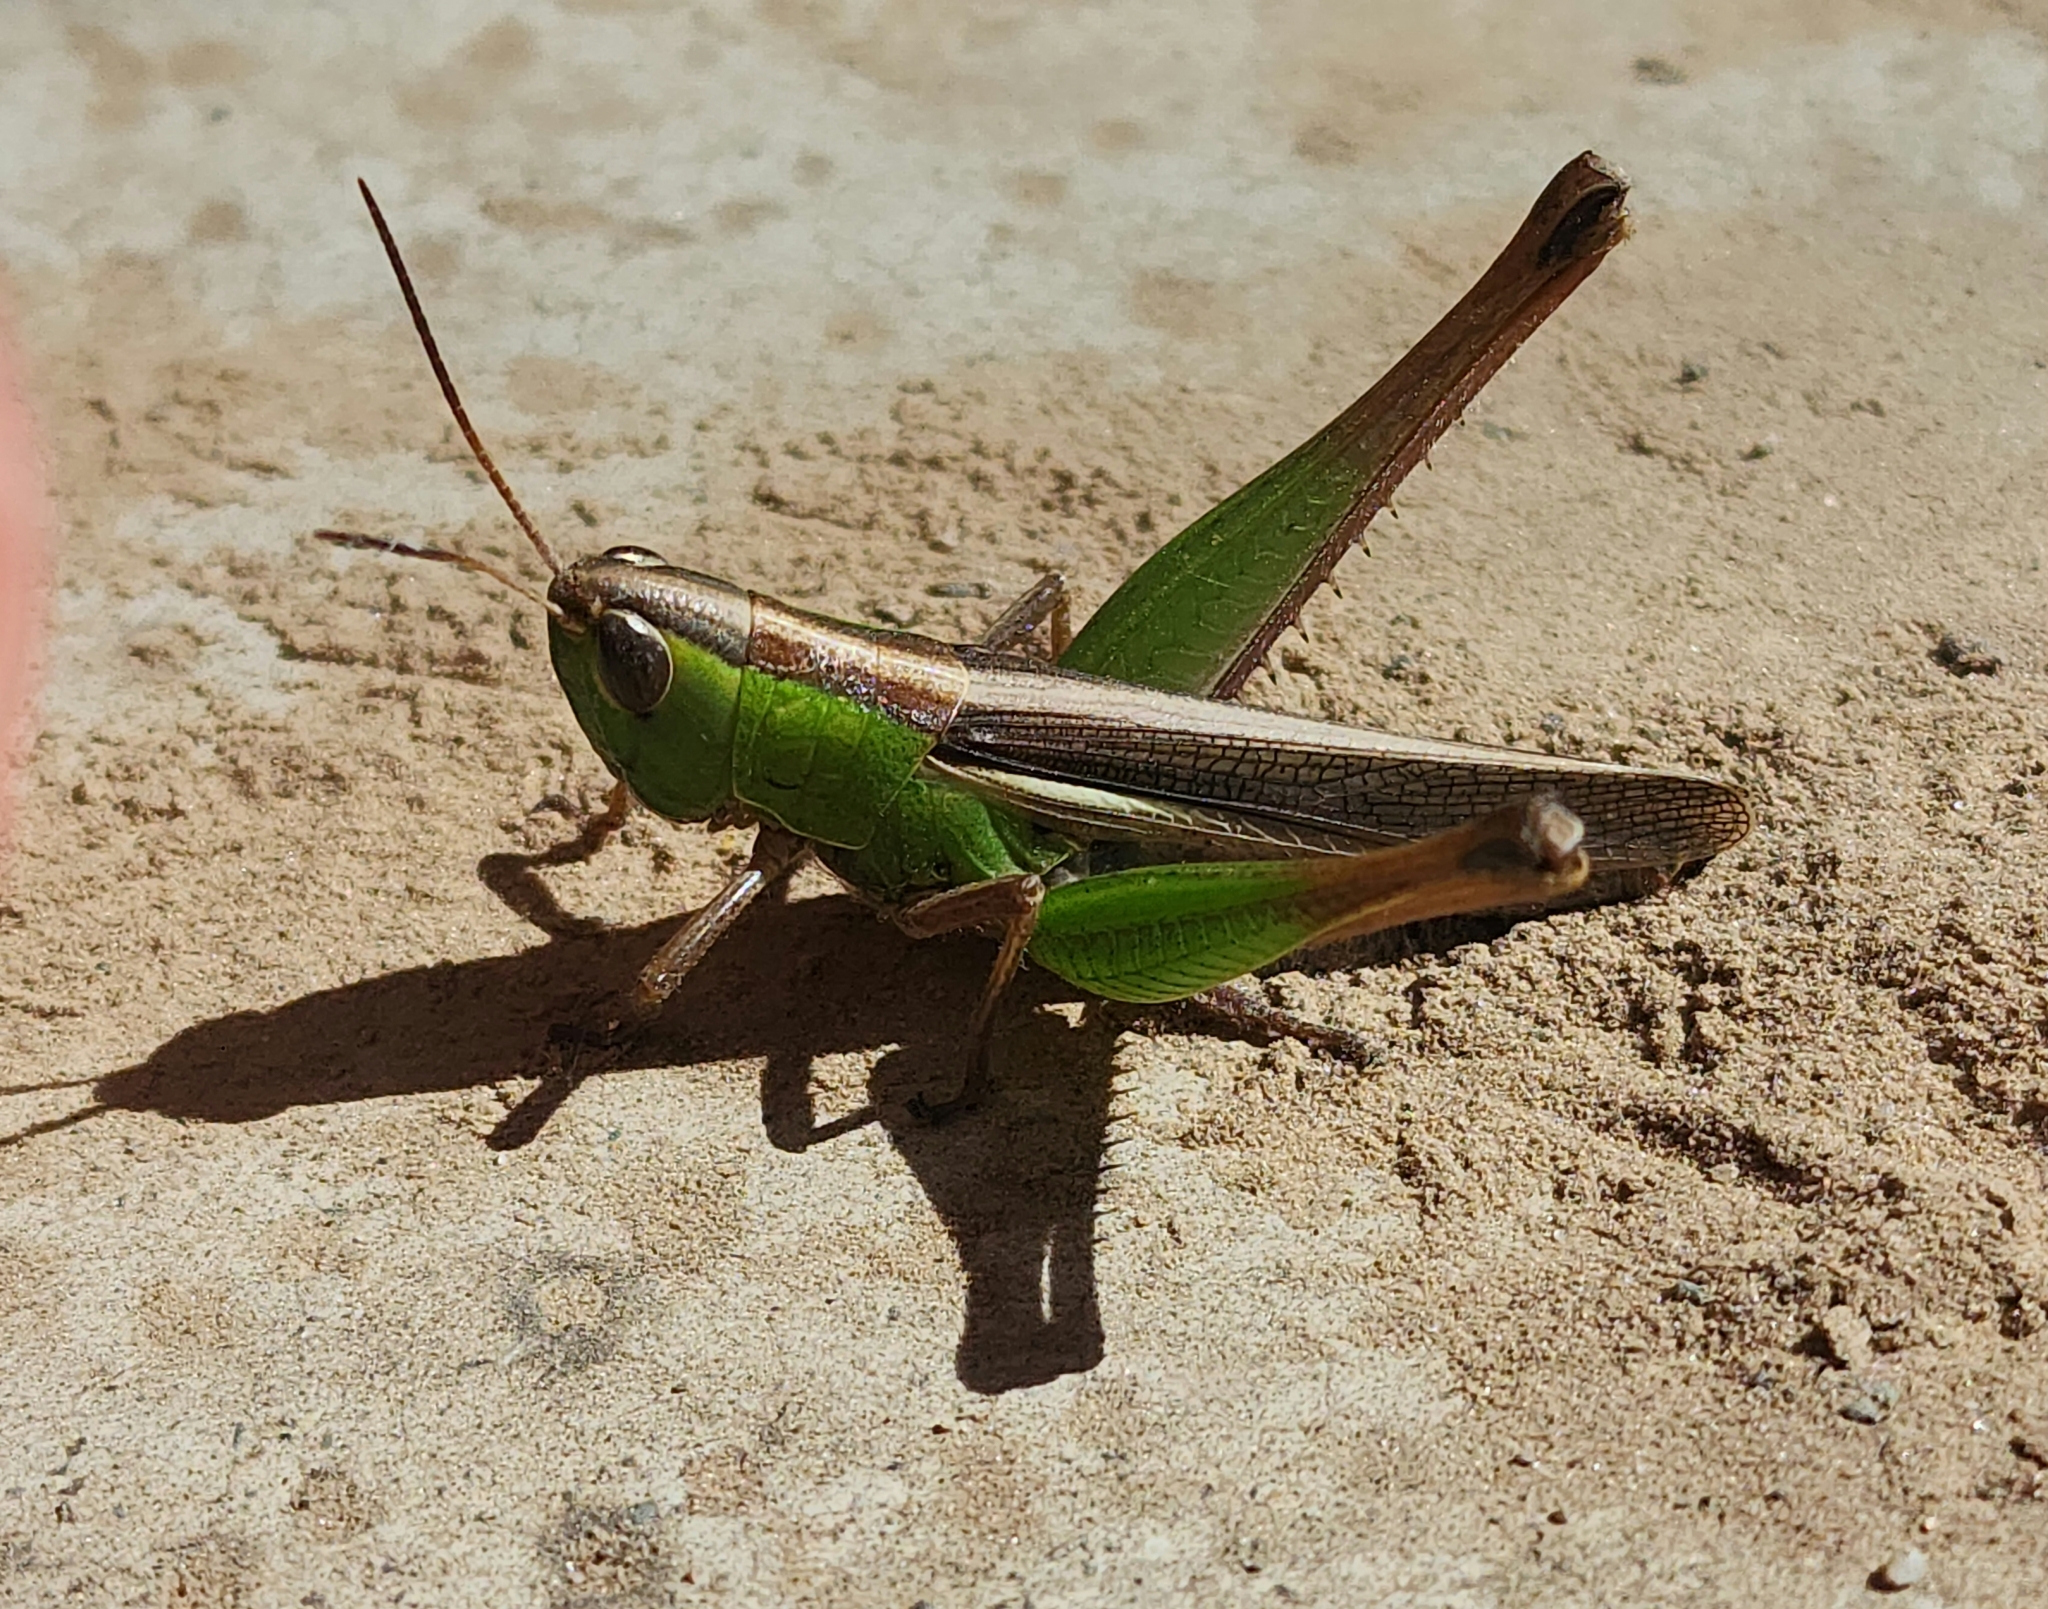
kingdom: Animalia
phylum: Arthropoda
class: Insecta
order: Orthoptera
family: Acrididae
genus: Staurorhectus
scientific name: Staurorhectus longicornis
